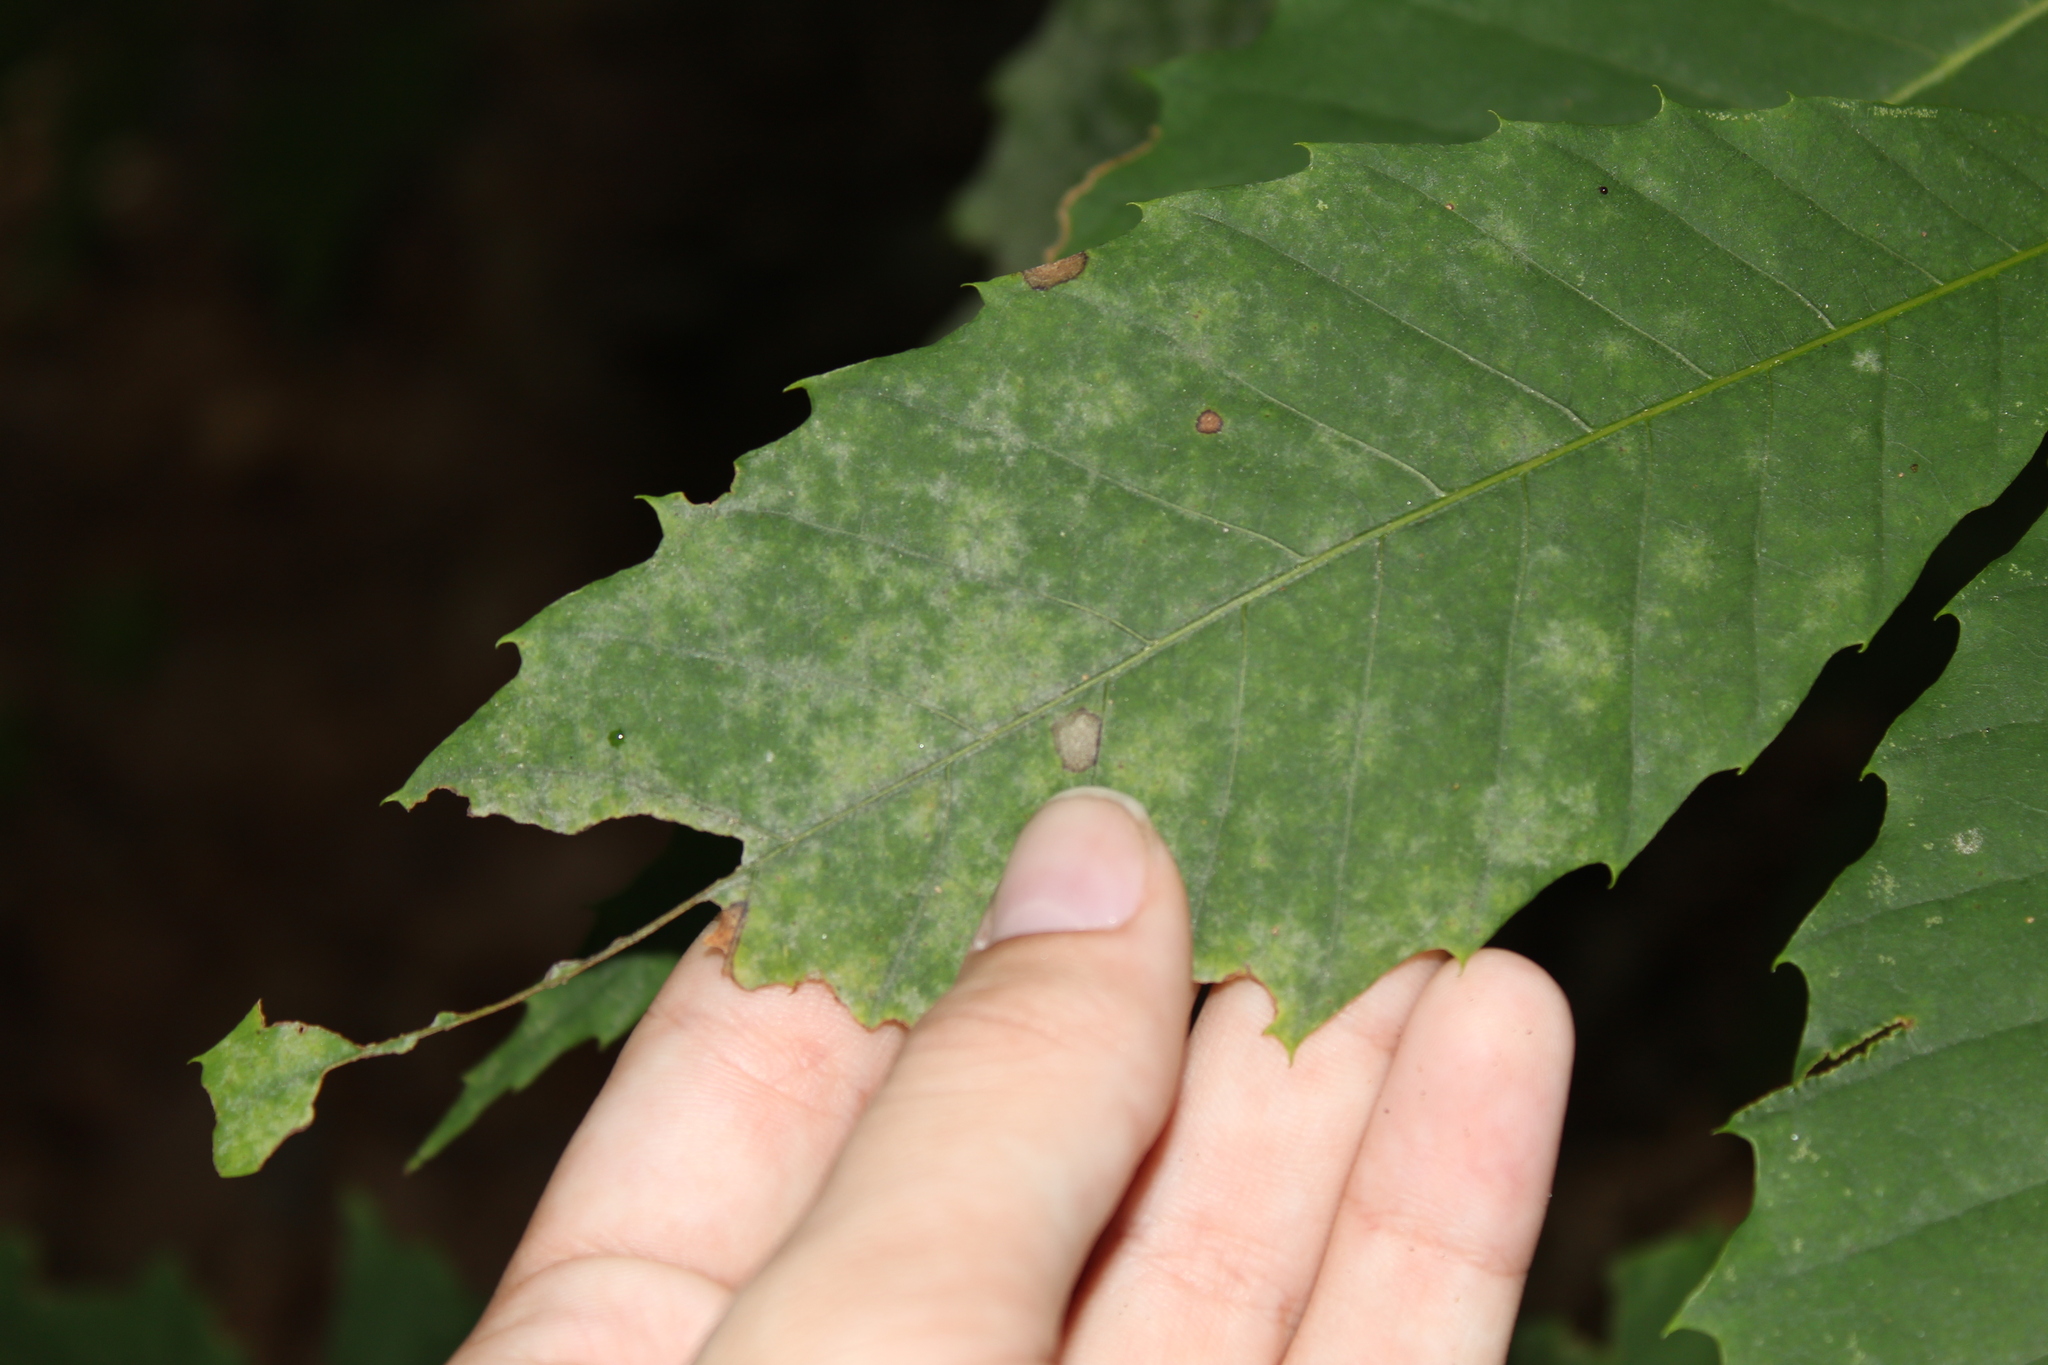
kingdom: Fungi
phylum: Ascomycota
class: Leotiomycetes
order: Helotiales
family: Erysiphaceae
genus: Erysiphe
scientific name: Erysiphe castaneae
